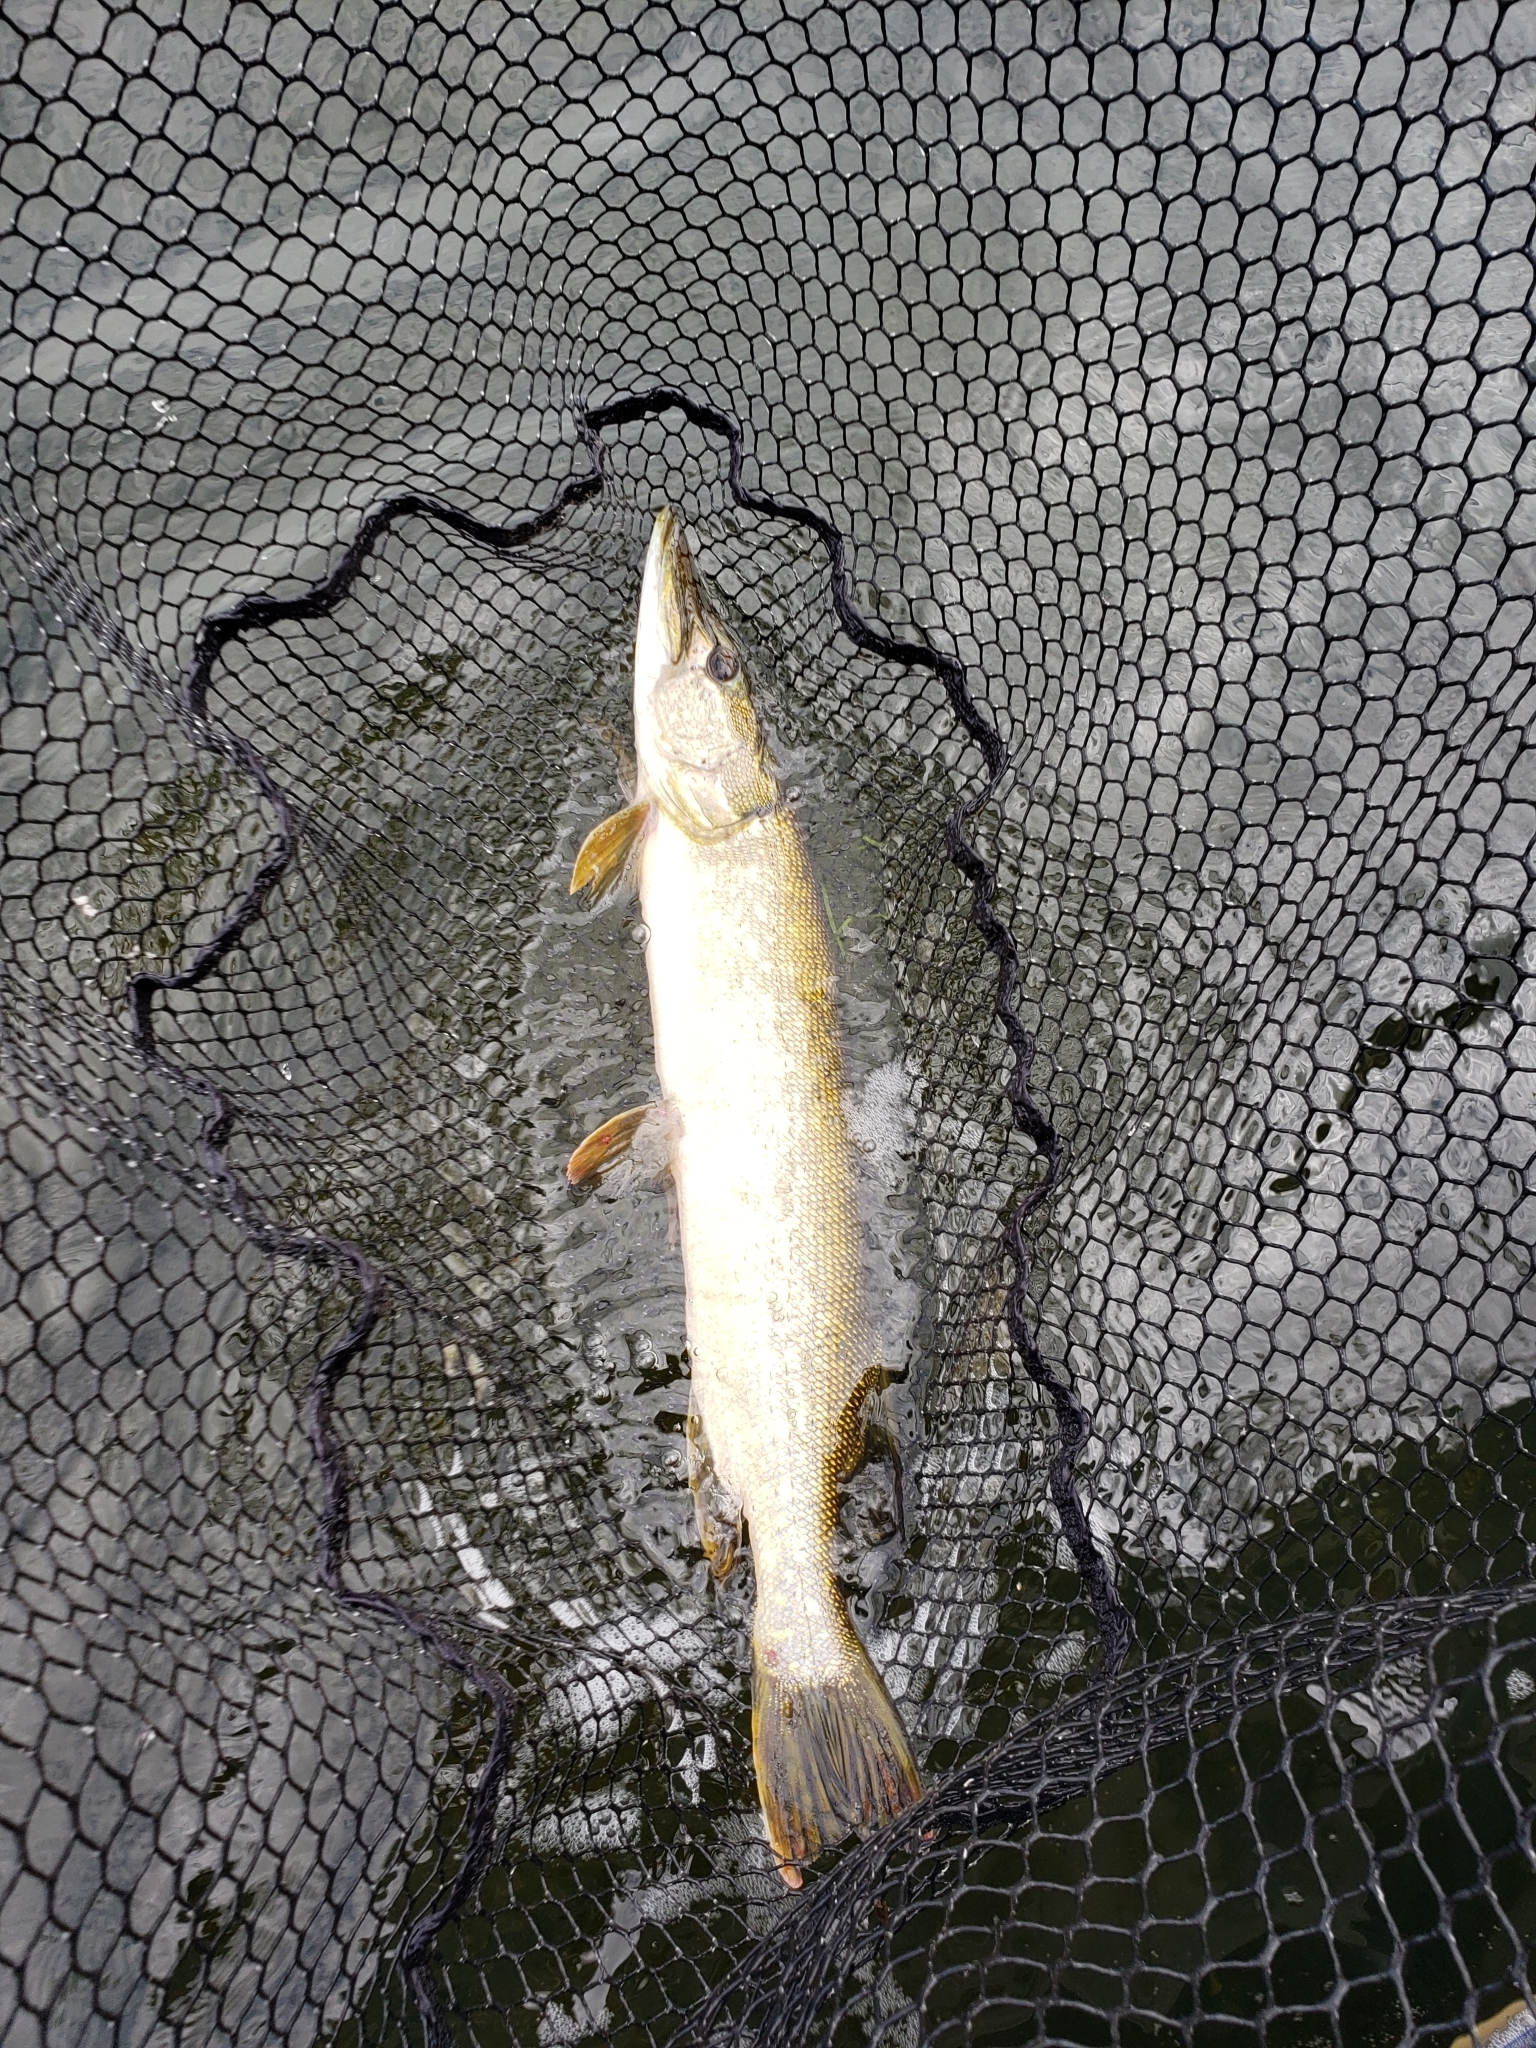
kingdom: Animalia
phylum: Chordata
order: Esociformes
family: Esocidae
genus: Esox
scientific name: Esox lucius
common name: Northern pike
